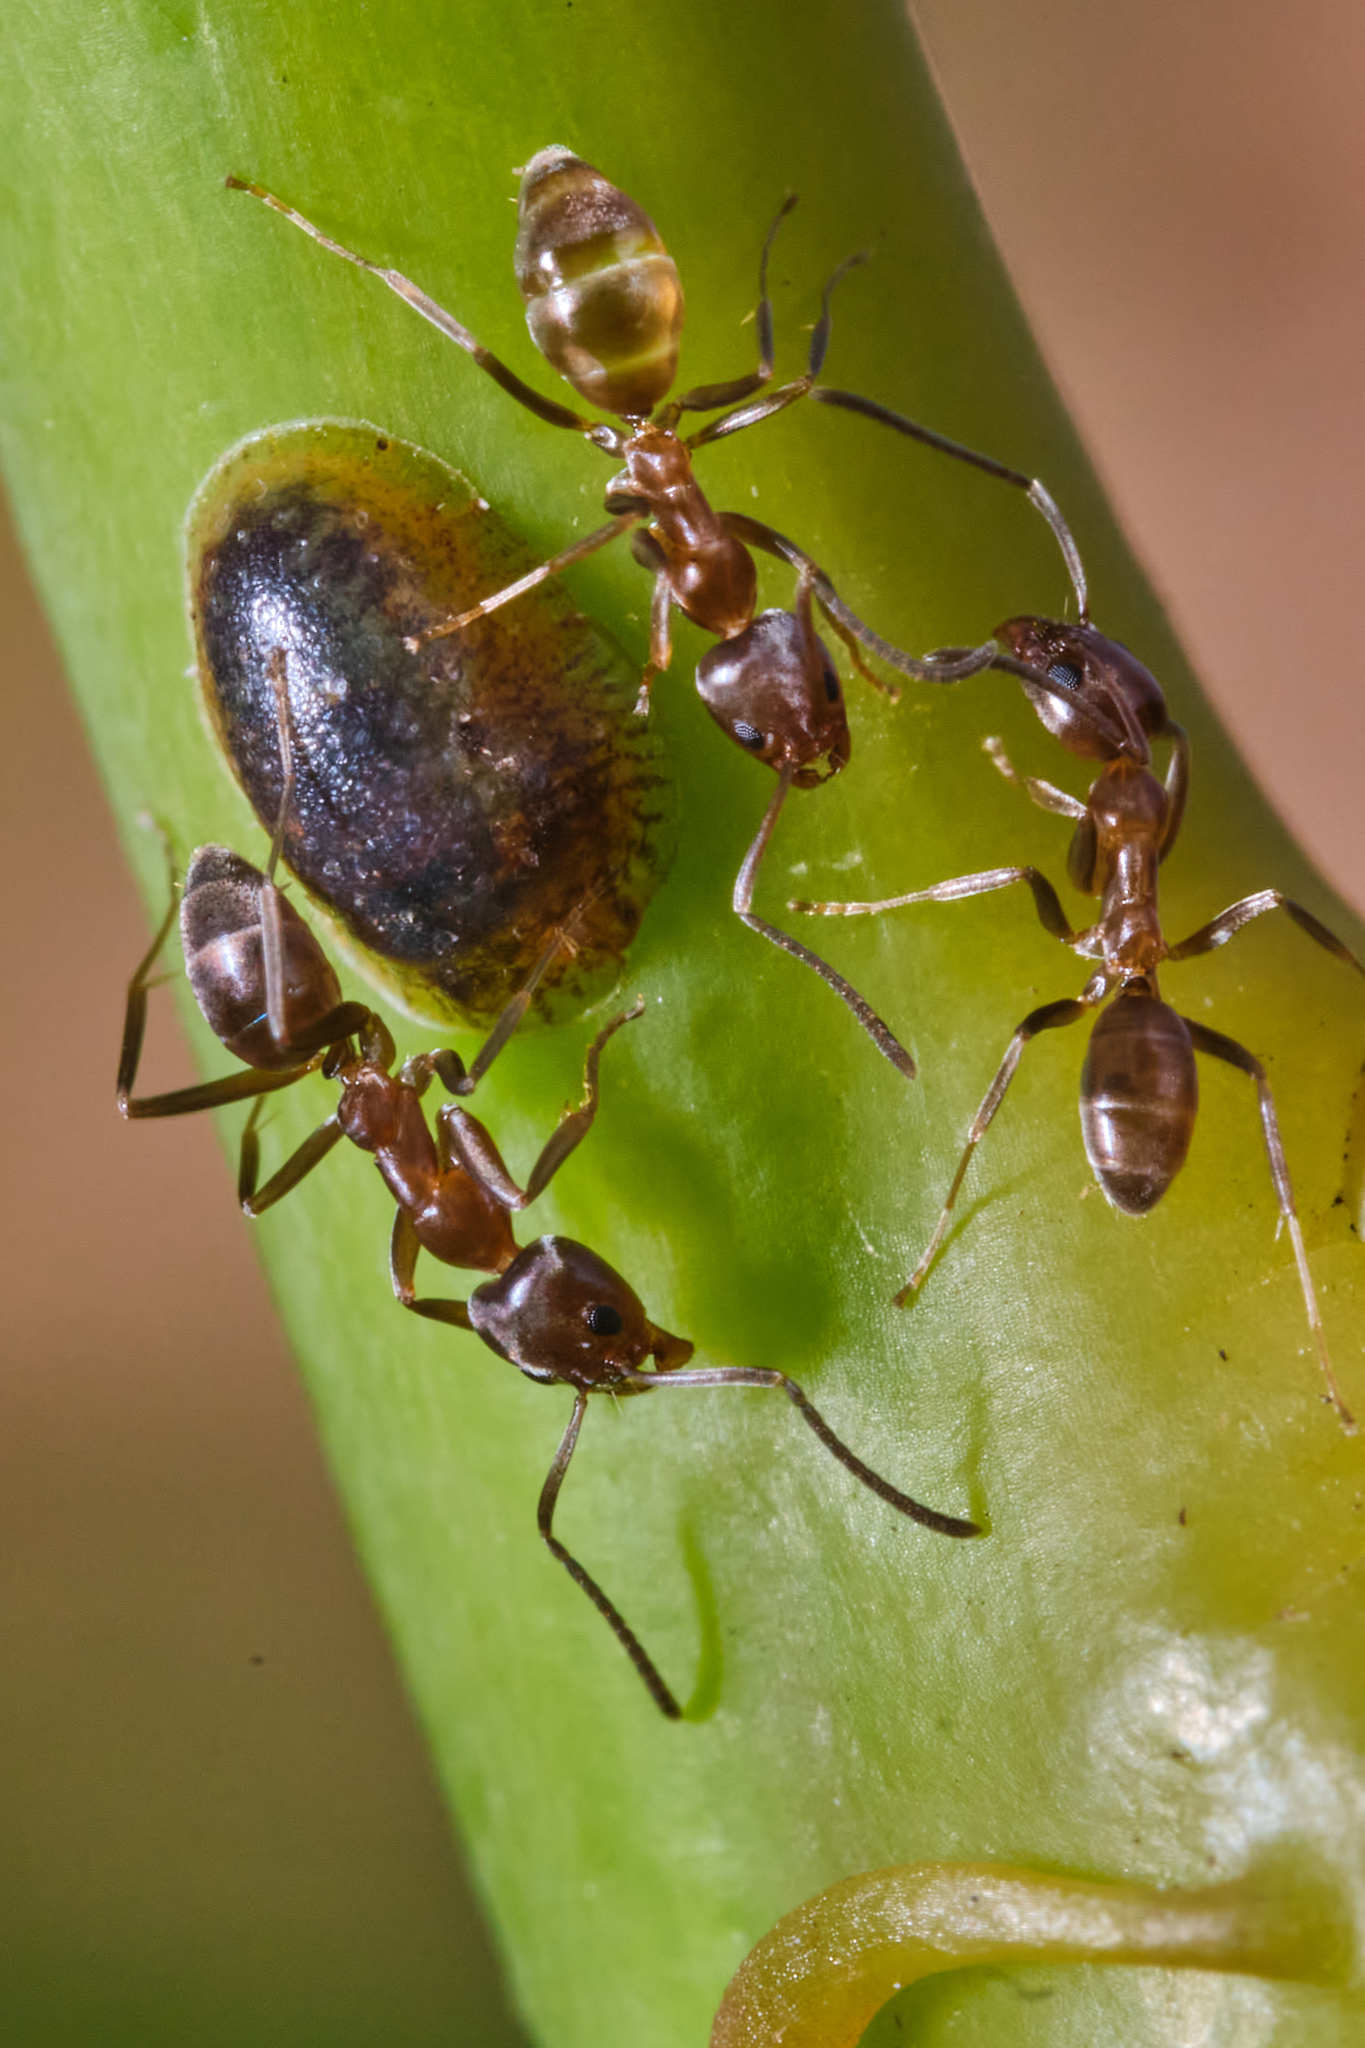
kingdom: Animalia
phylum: Arthropoda
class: Insecta
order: Hymenoptera
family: Formicidae
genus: Linepithema
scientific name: Linepithema humile
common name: Argentine ant
